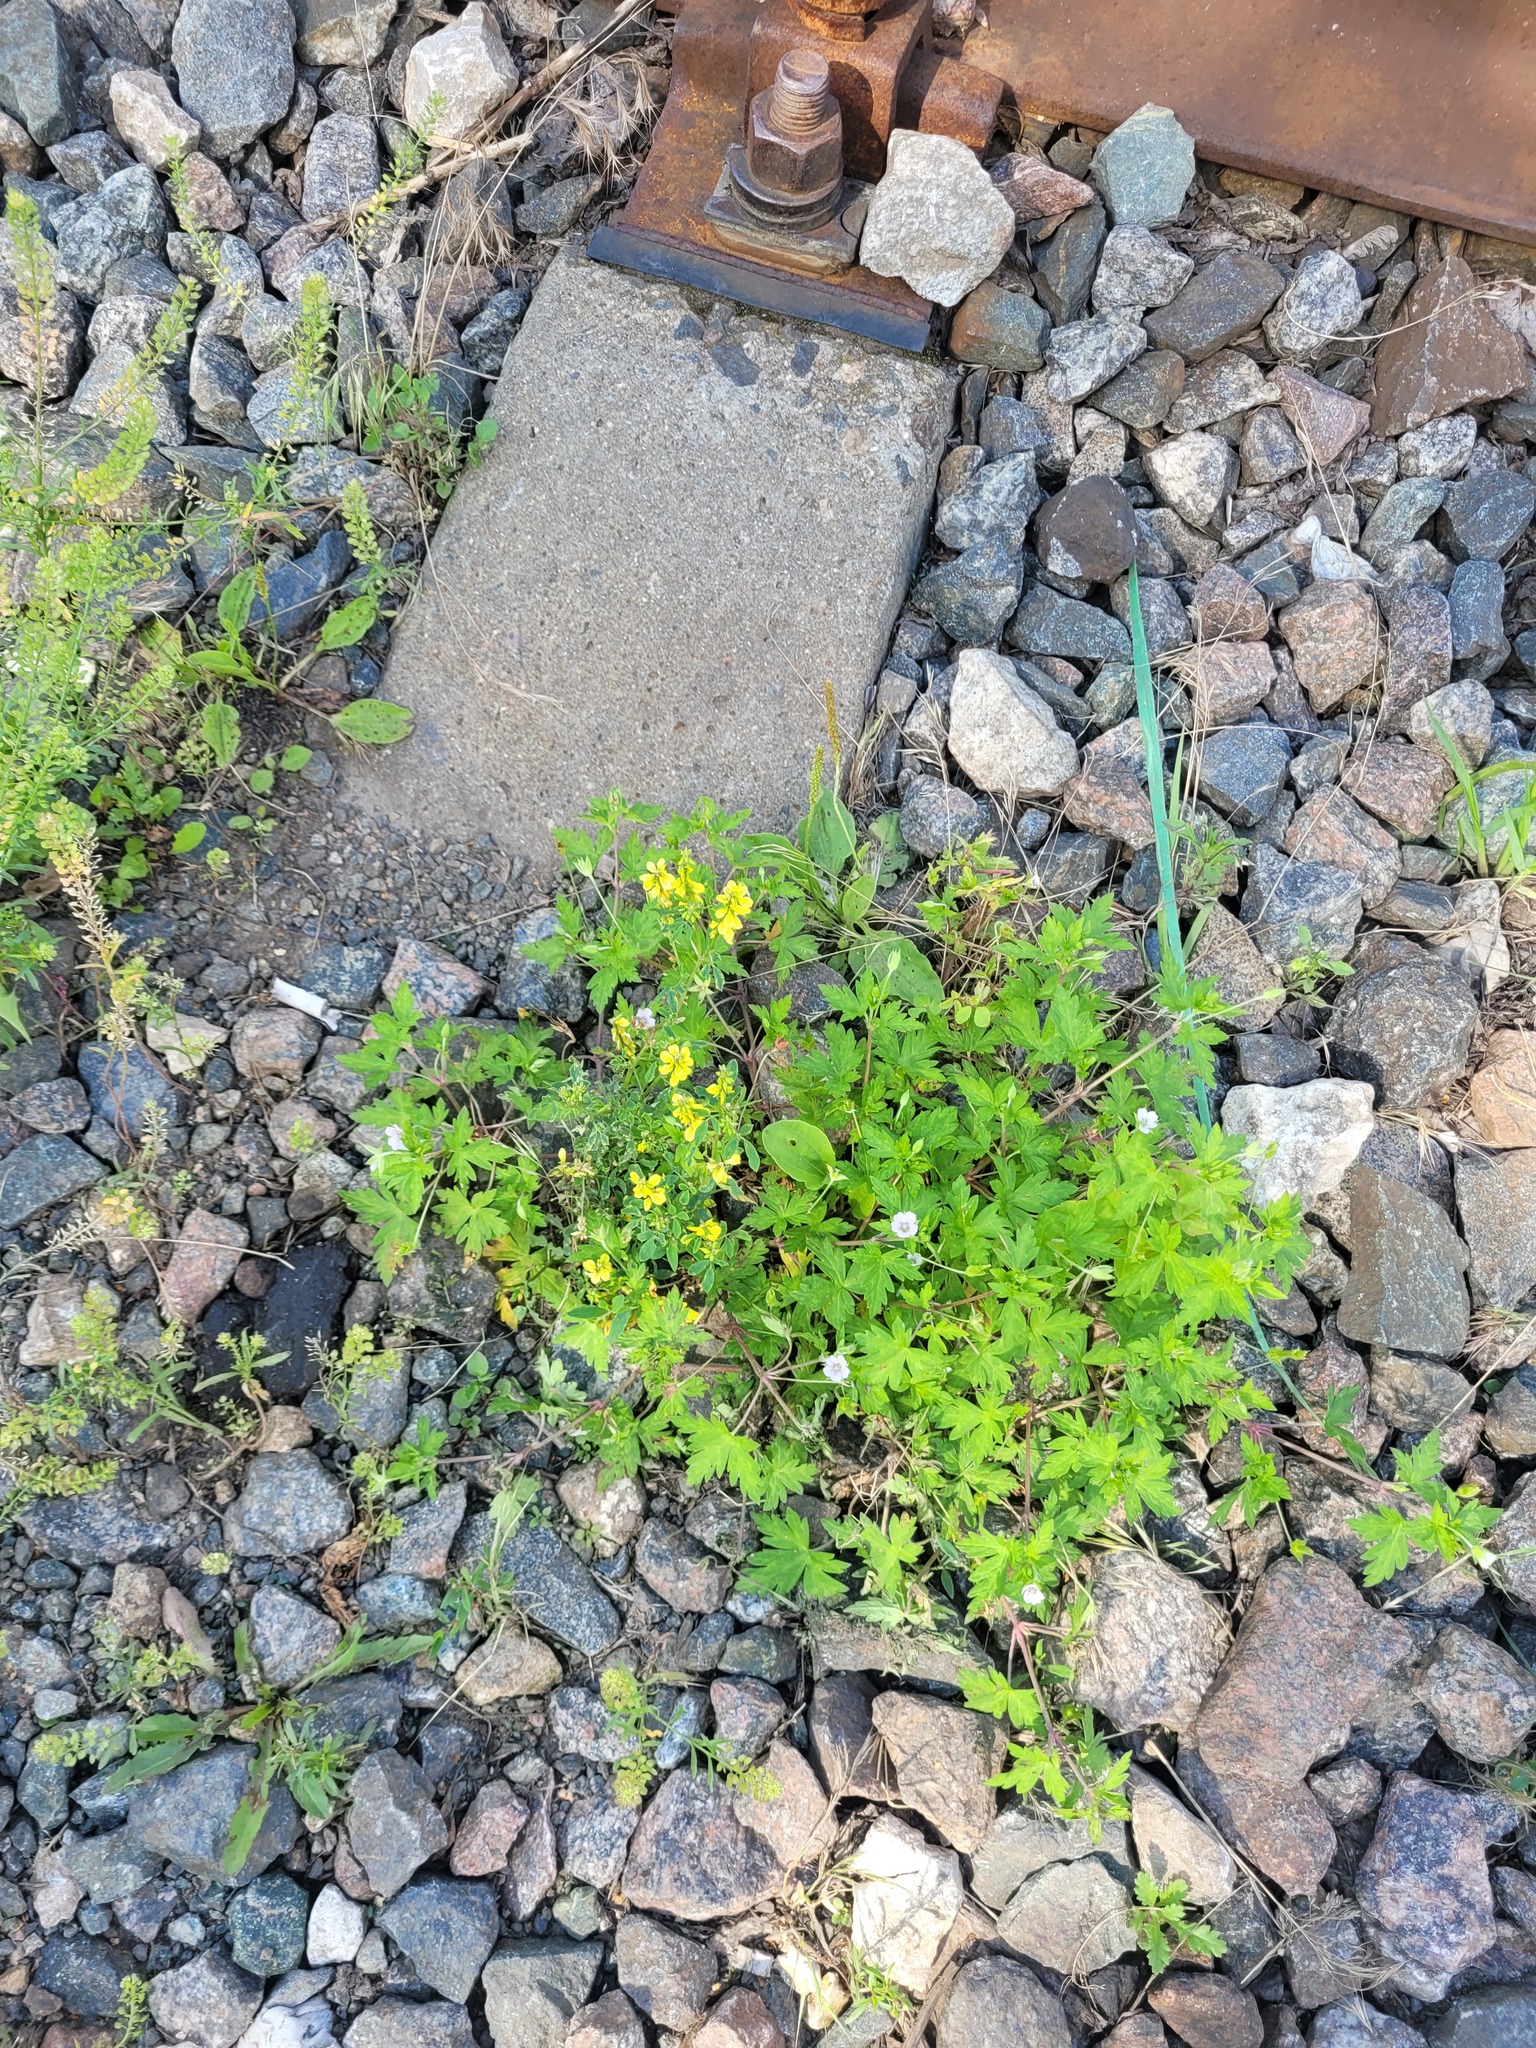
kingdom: Plantae
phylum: Tracheophyta
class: Magnoliopsida
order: Fabales
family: Fabaceae
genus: Melilotus
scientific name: Melilotus officinalis
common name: Sweetclover
